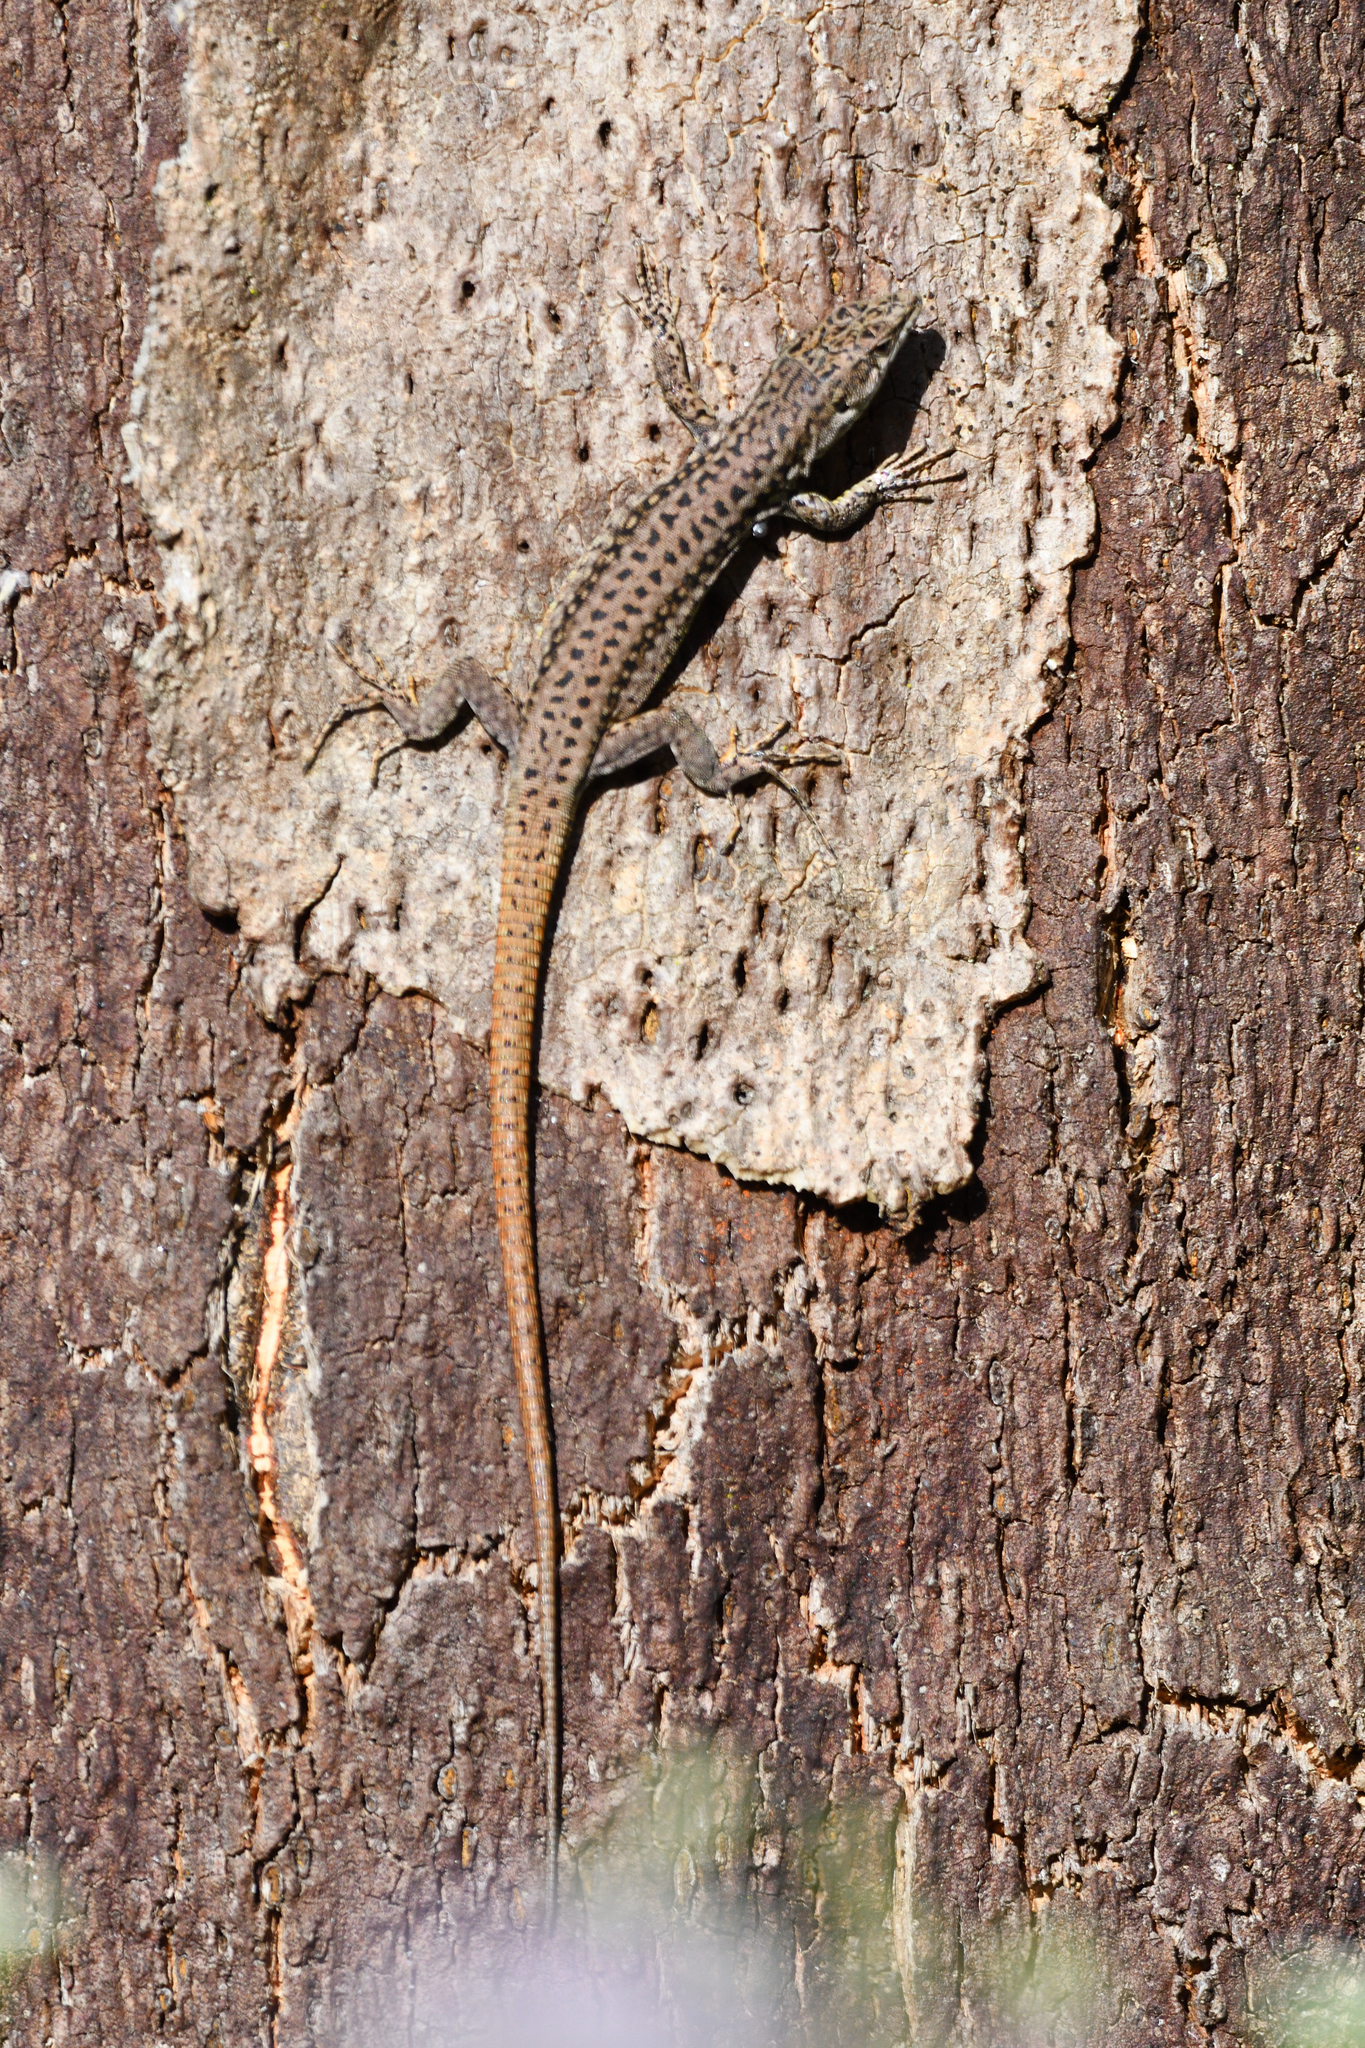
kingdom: Animalia
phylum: Chordata
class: Squamata
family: Lacertidae
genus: Podarcis
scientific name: Podarcis virescens
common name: Geniez’s wall lizard
